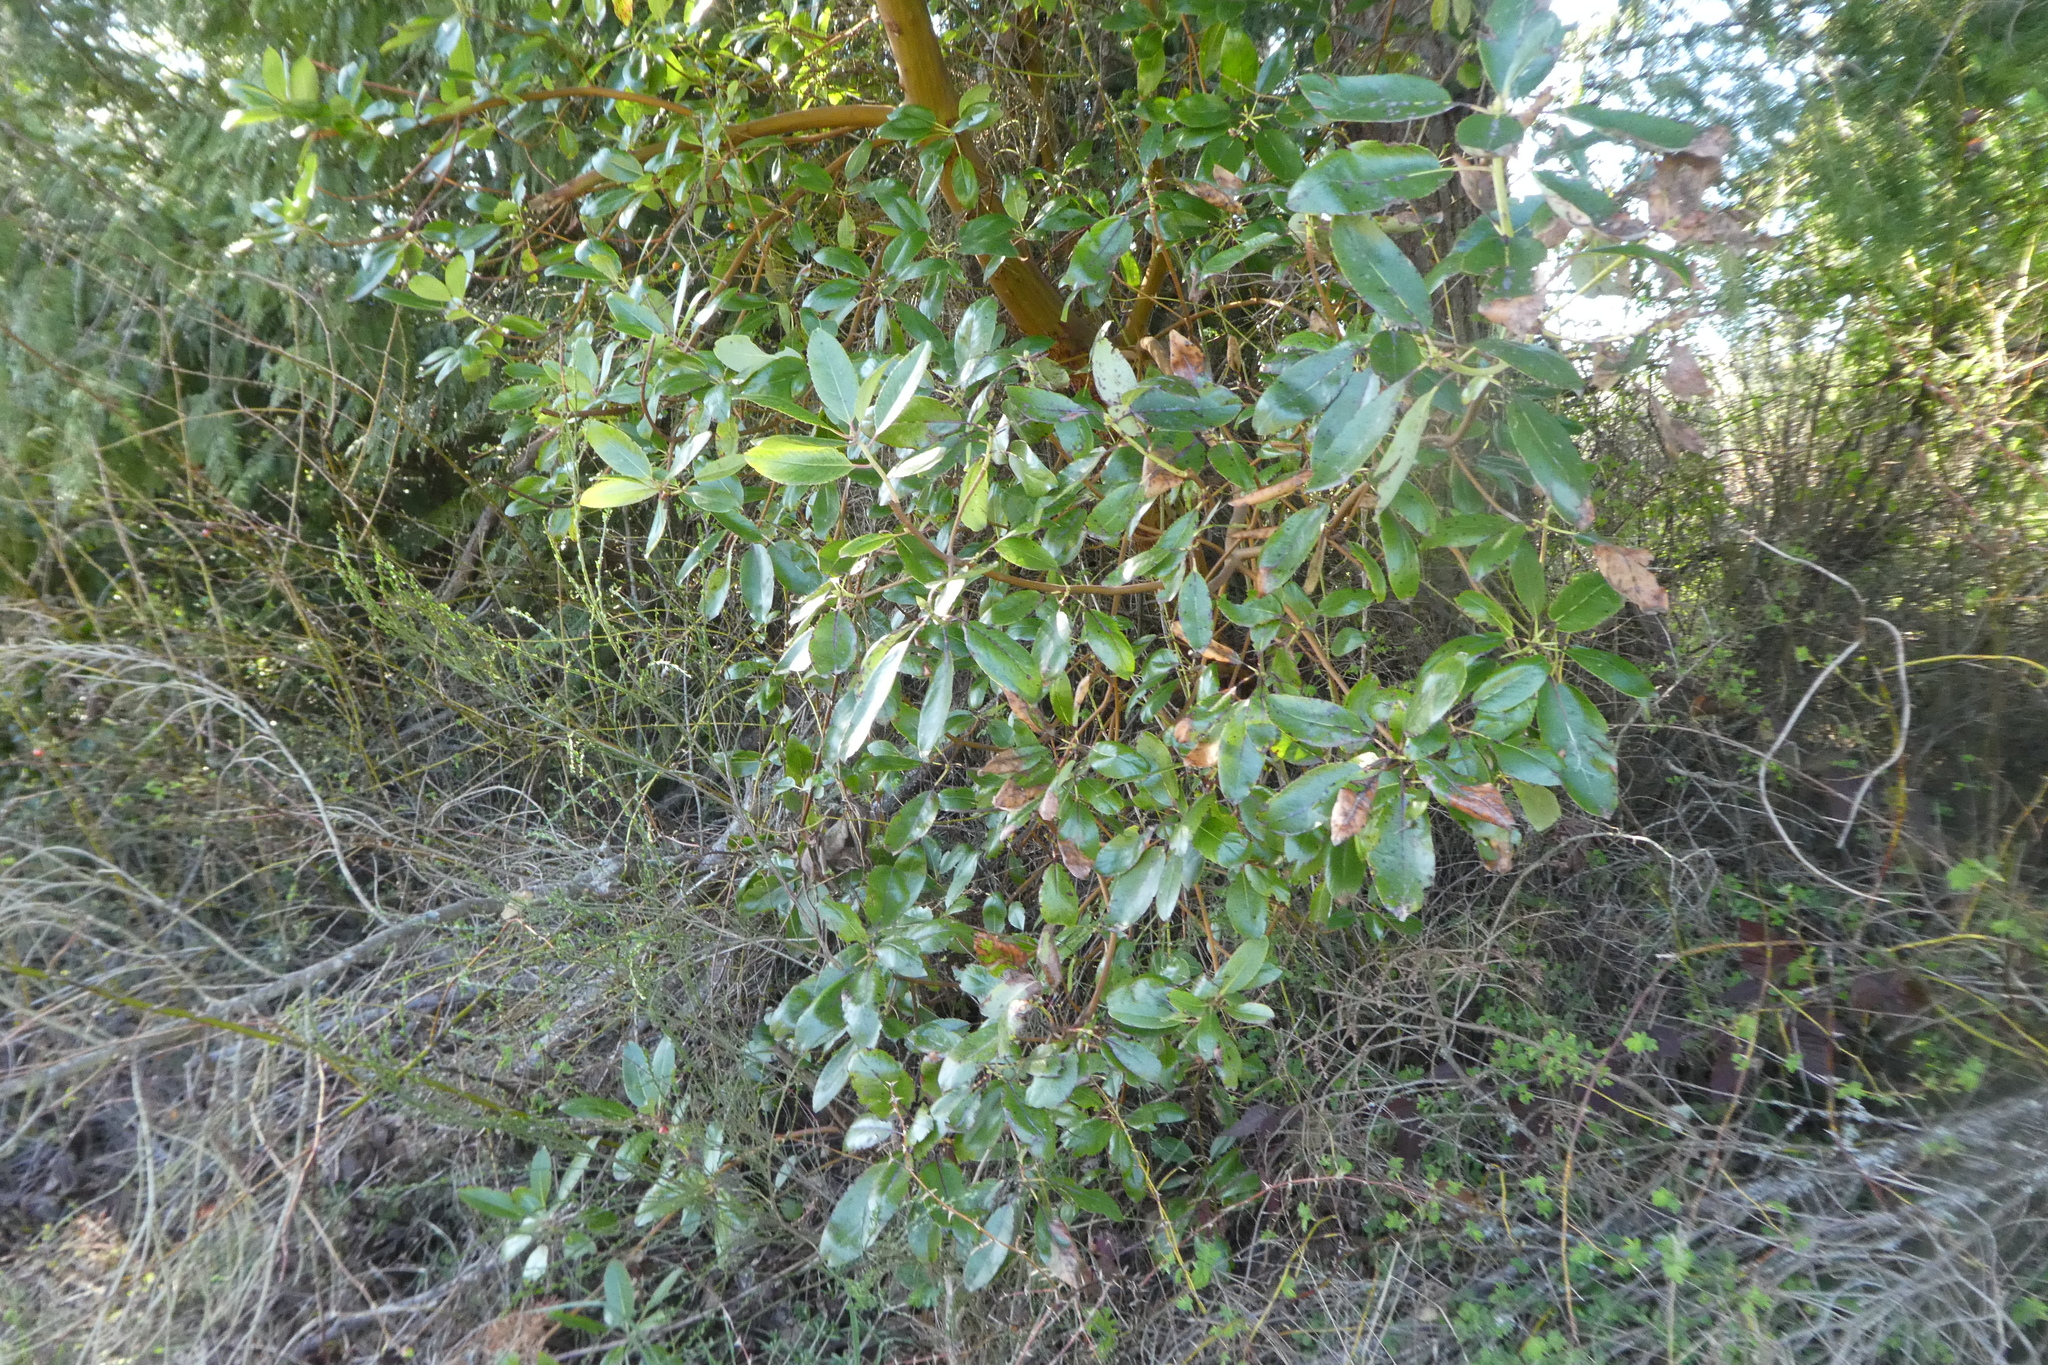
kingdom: Plantae
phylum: Tracheophyta
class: Magnoliopsida
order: Ericales
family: Ericaceae
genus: Arbutus
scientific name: Arbutus menziesii
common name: Pacific madrone
